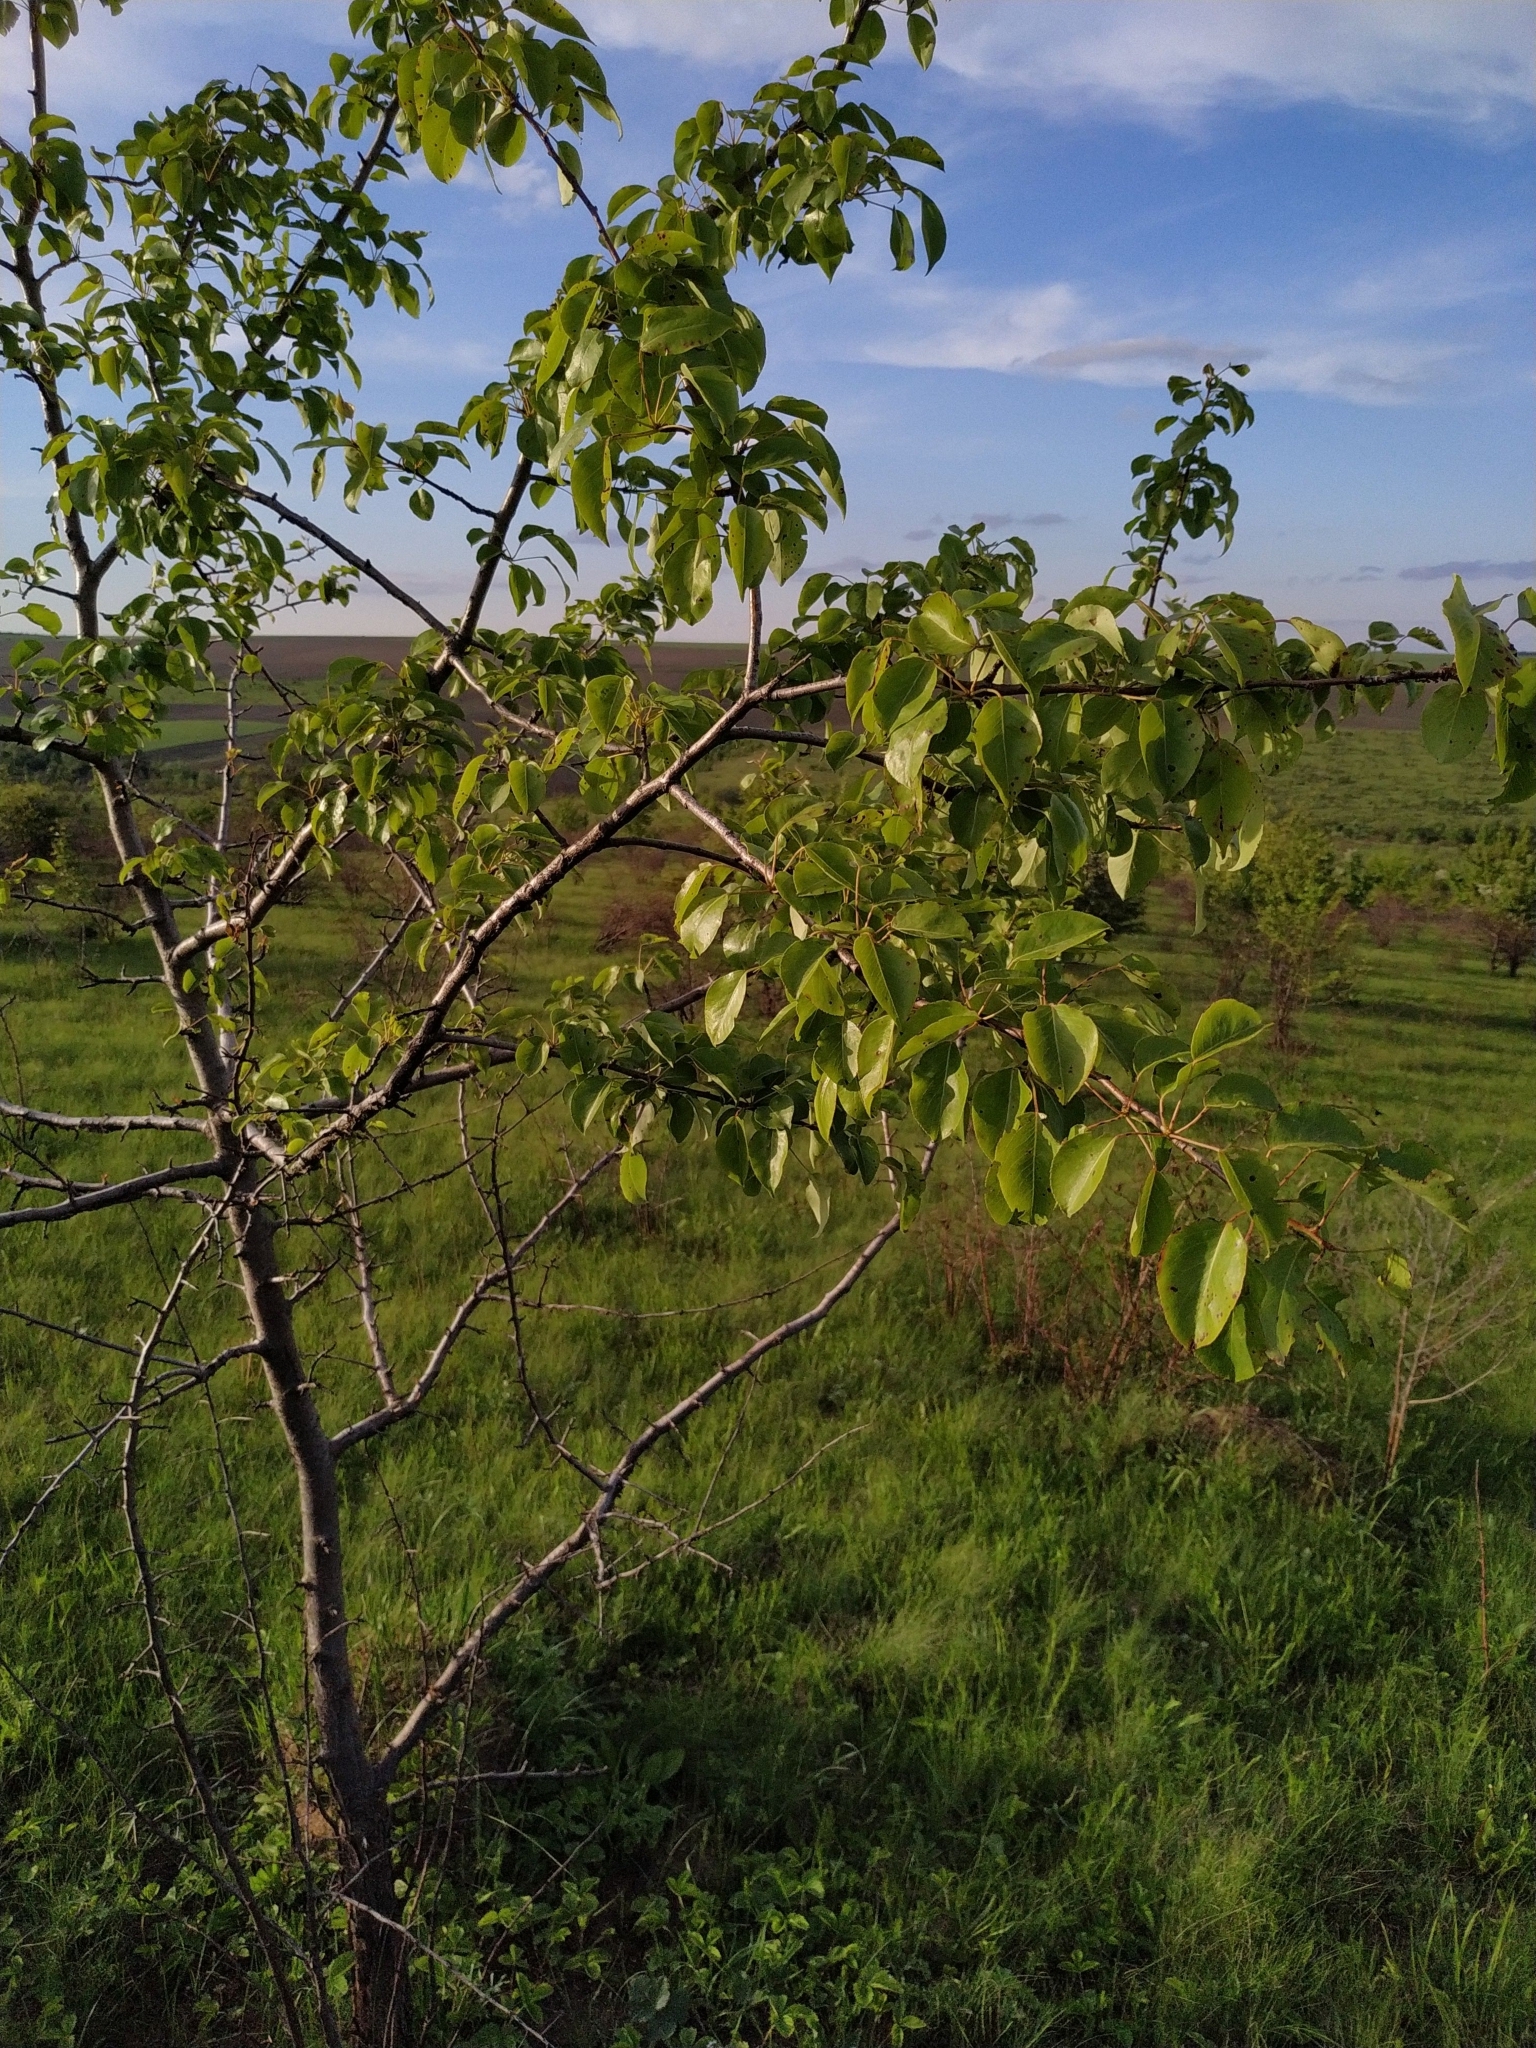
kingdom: Plantae
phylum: Tracheophyta
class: Magnoliopsida
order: Rosales
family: Rosaceae
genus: Pyrus
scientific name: Pyrus communis
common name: Pear
